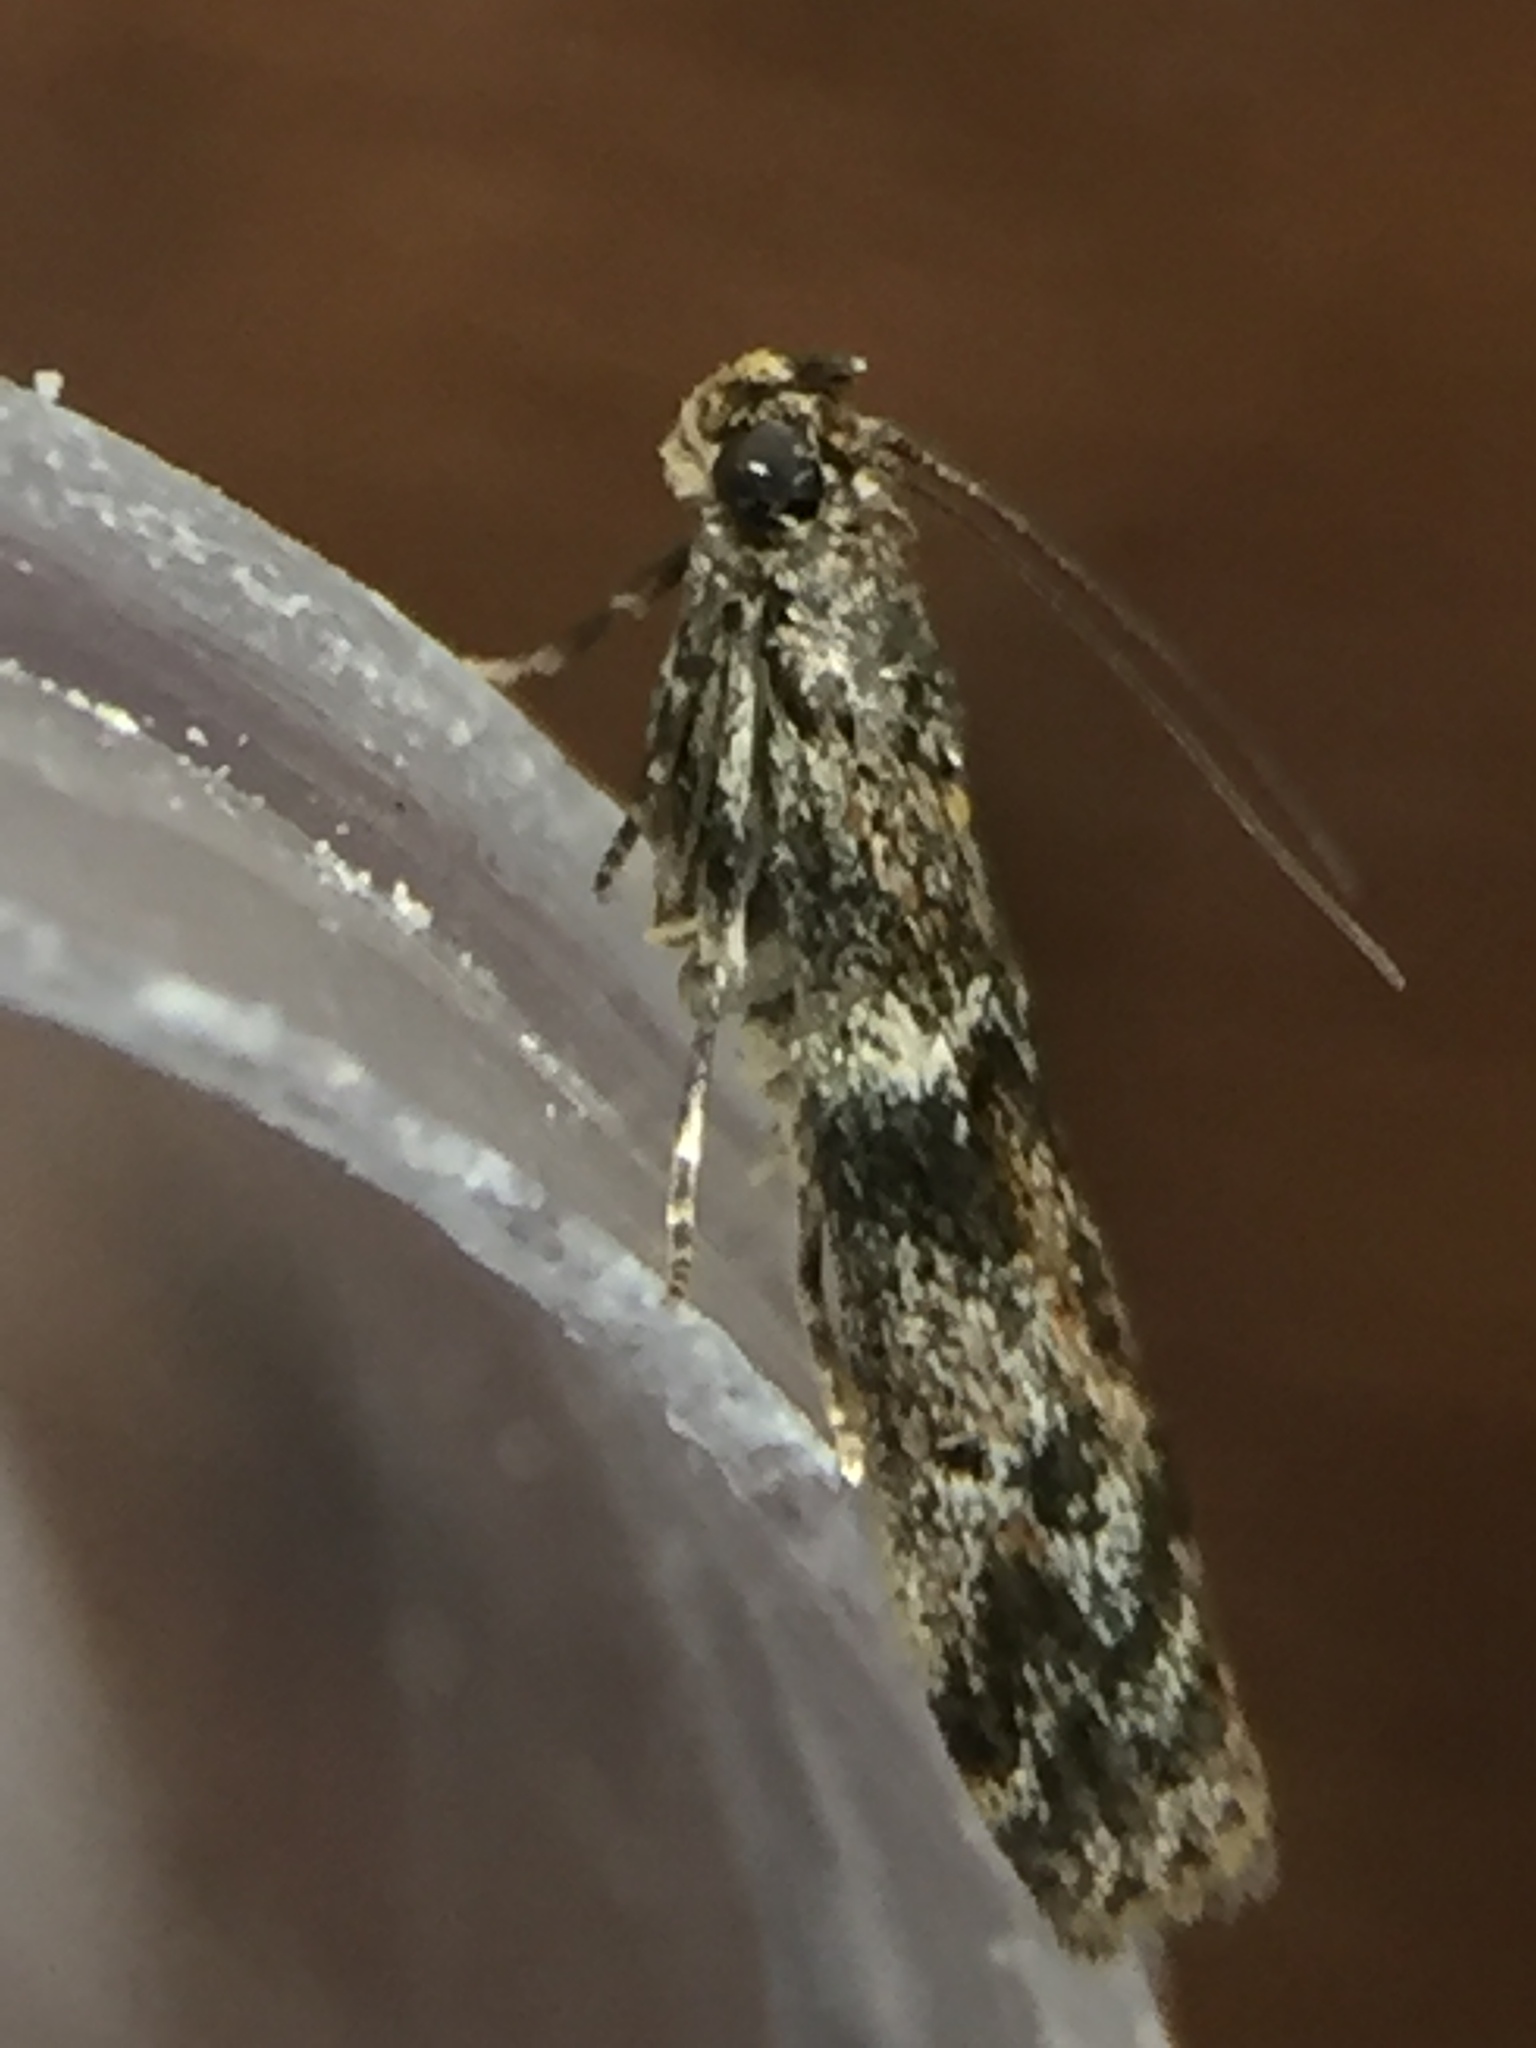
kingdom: Animalia
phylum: Arthropoda
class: Insecta
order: Lepidoptera
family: Pyralidae
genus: Ephestiopsis
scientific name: Ephestiopsis oenobarella
